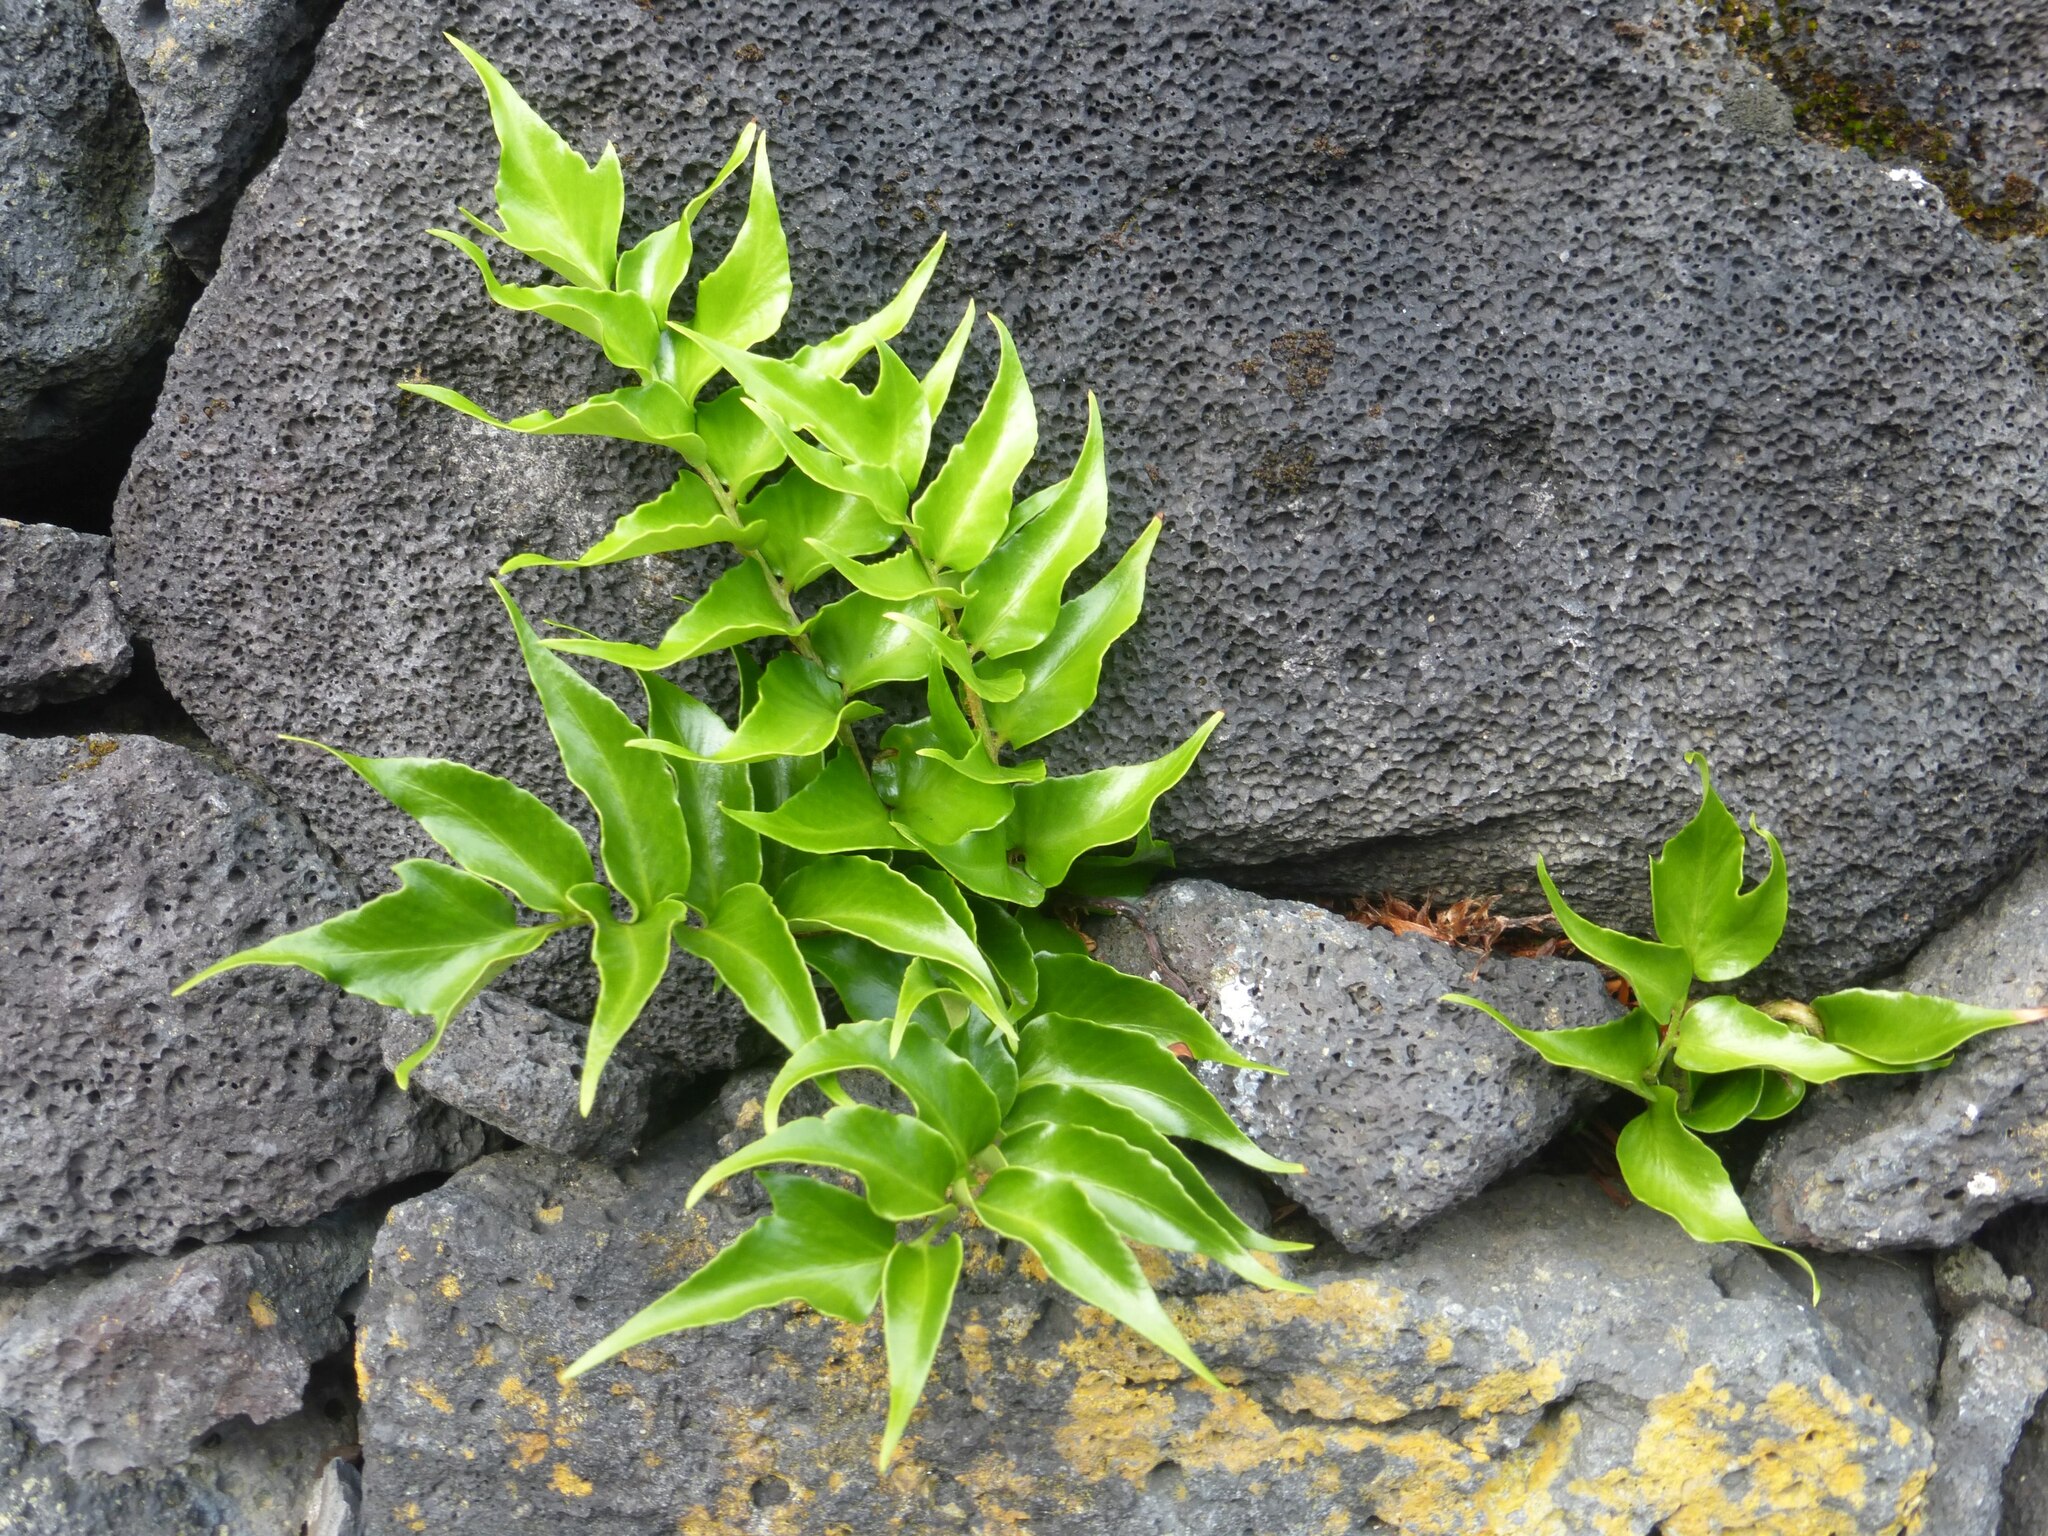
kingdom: Plantae
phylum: Tracheophyta
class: Polypodiopsida
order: Polypodiales
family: Dryopteridaceae
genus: Cyrtomium
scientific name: Cyrtomium falcatum
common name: House holly-fern
